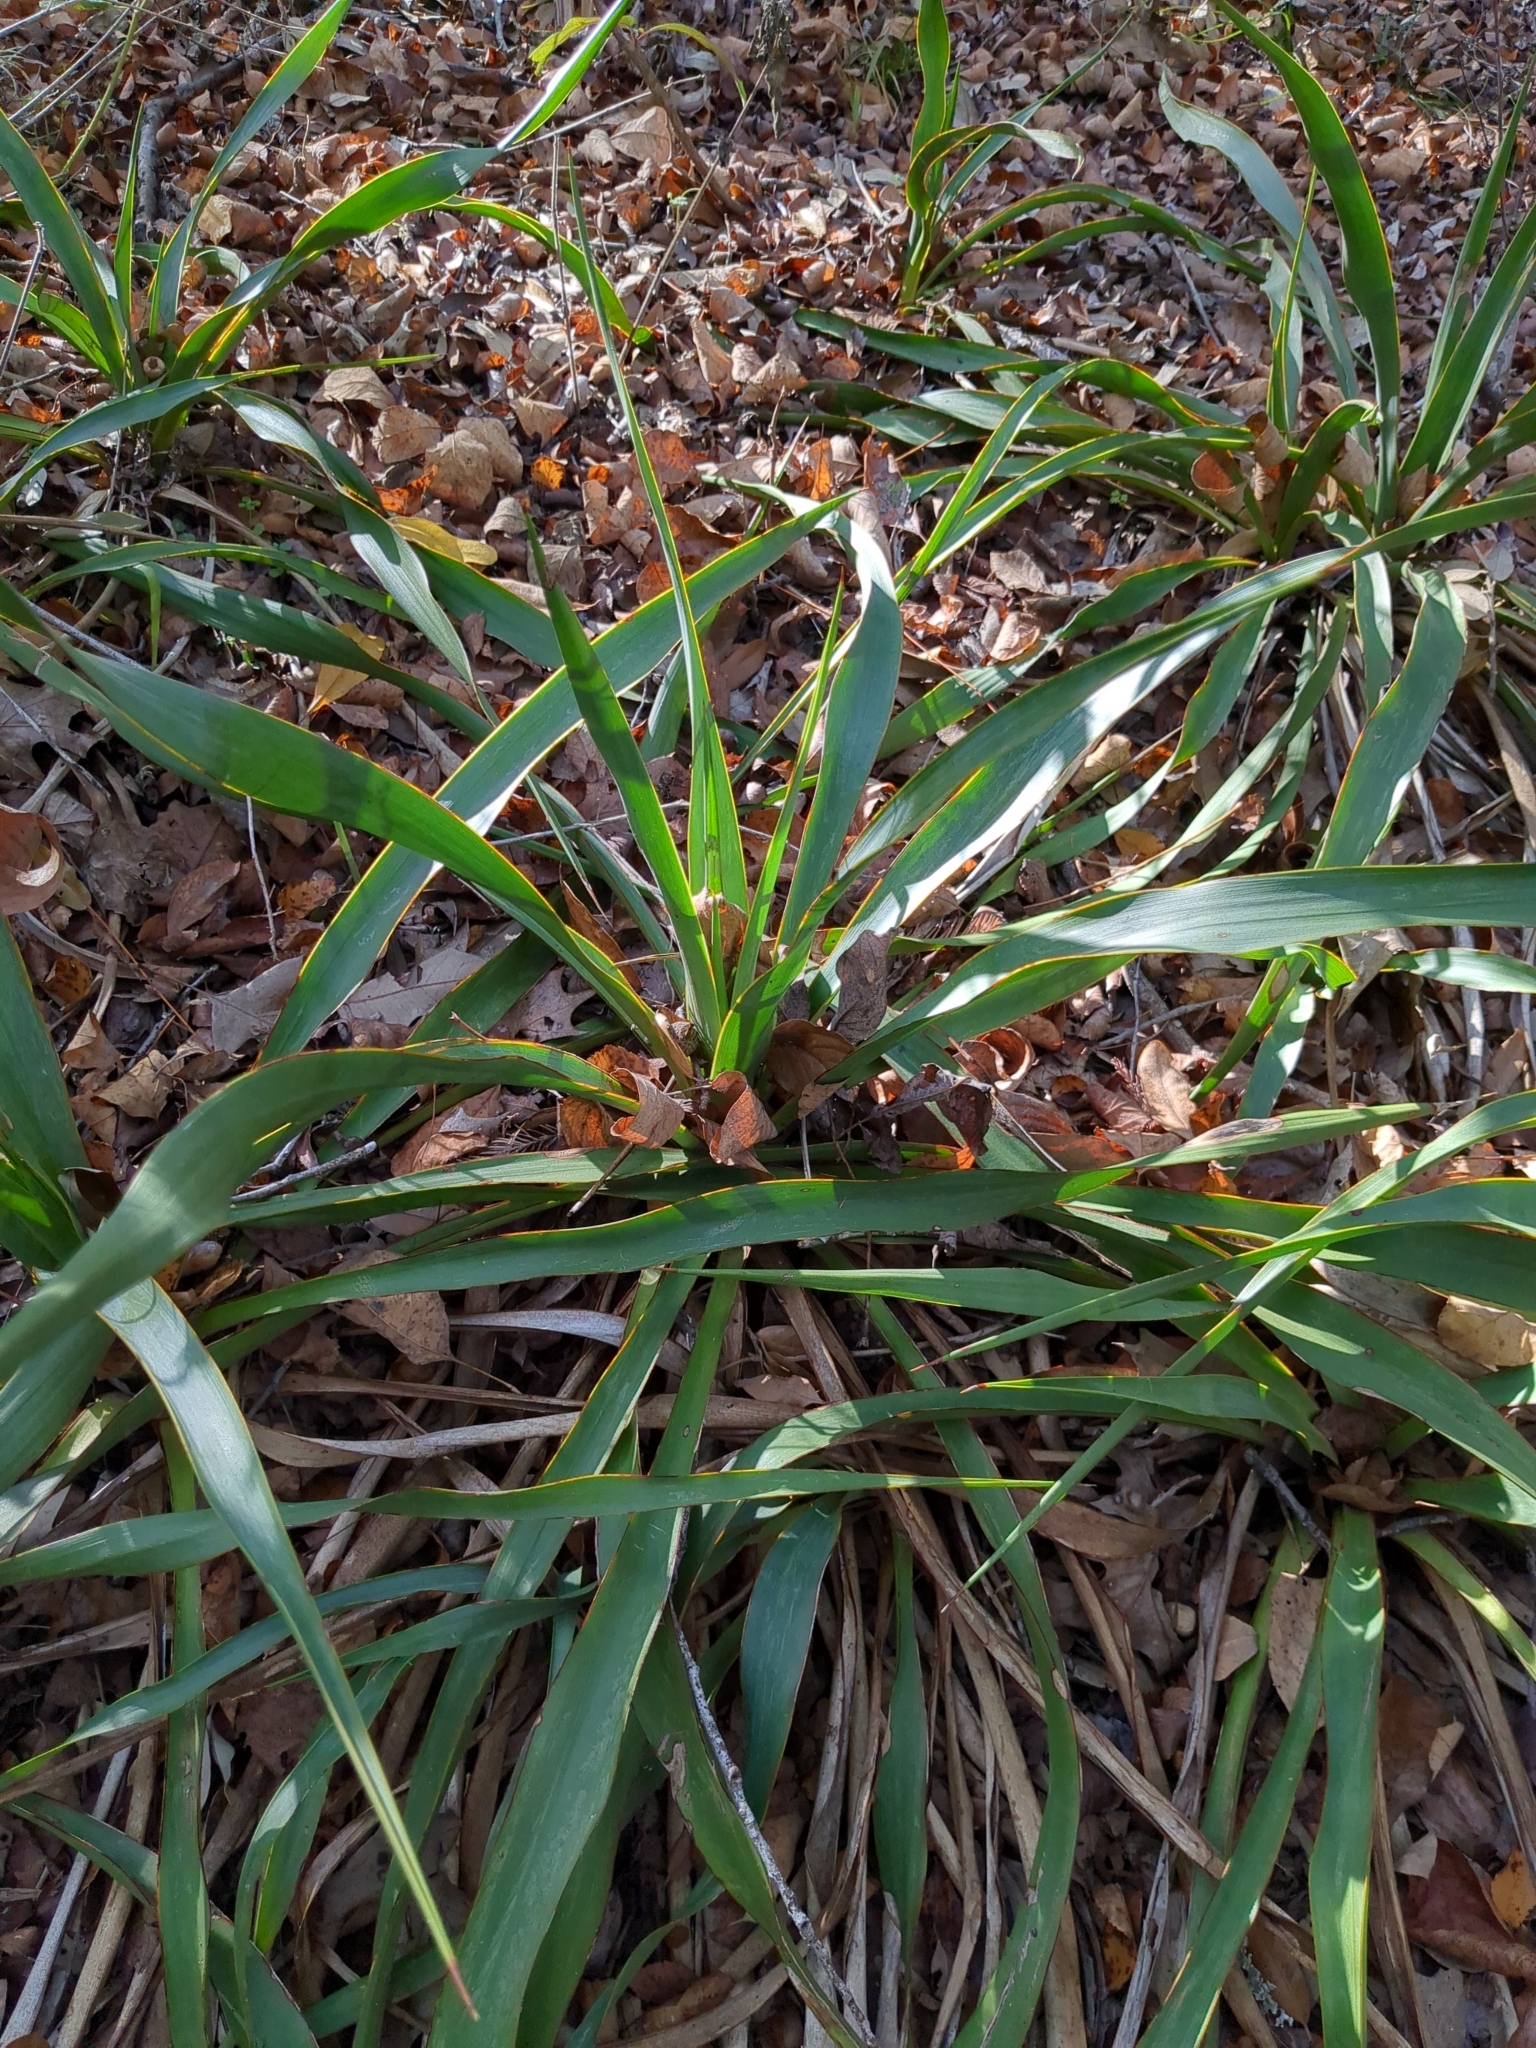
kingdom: Plantae
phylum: Tracheophyta
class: Liliopsida
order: Asparagales
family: Asparagaceae
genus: Yucca
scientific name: Yucca rupicola
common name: Twisted-leaf spanish-dagger
